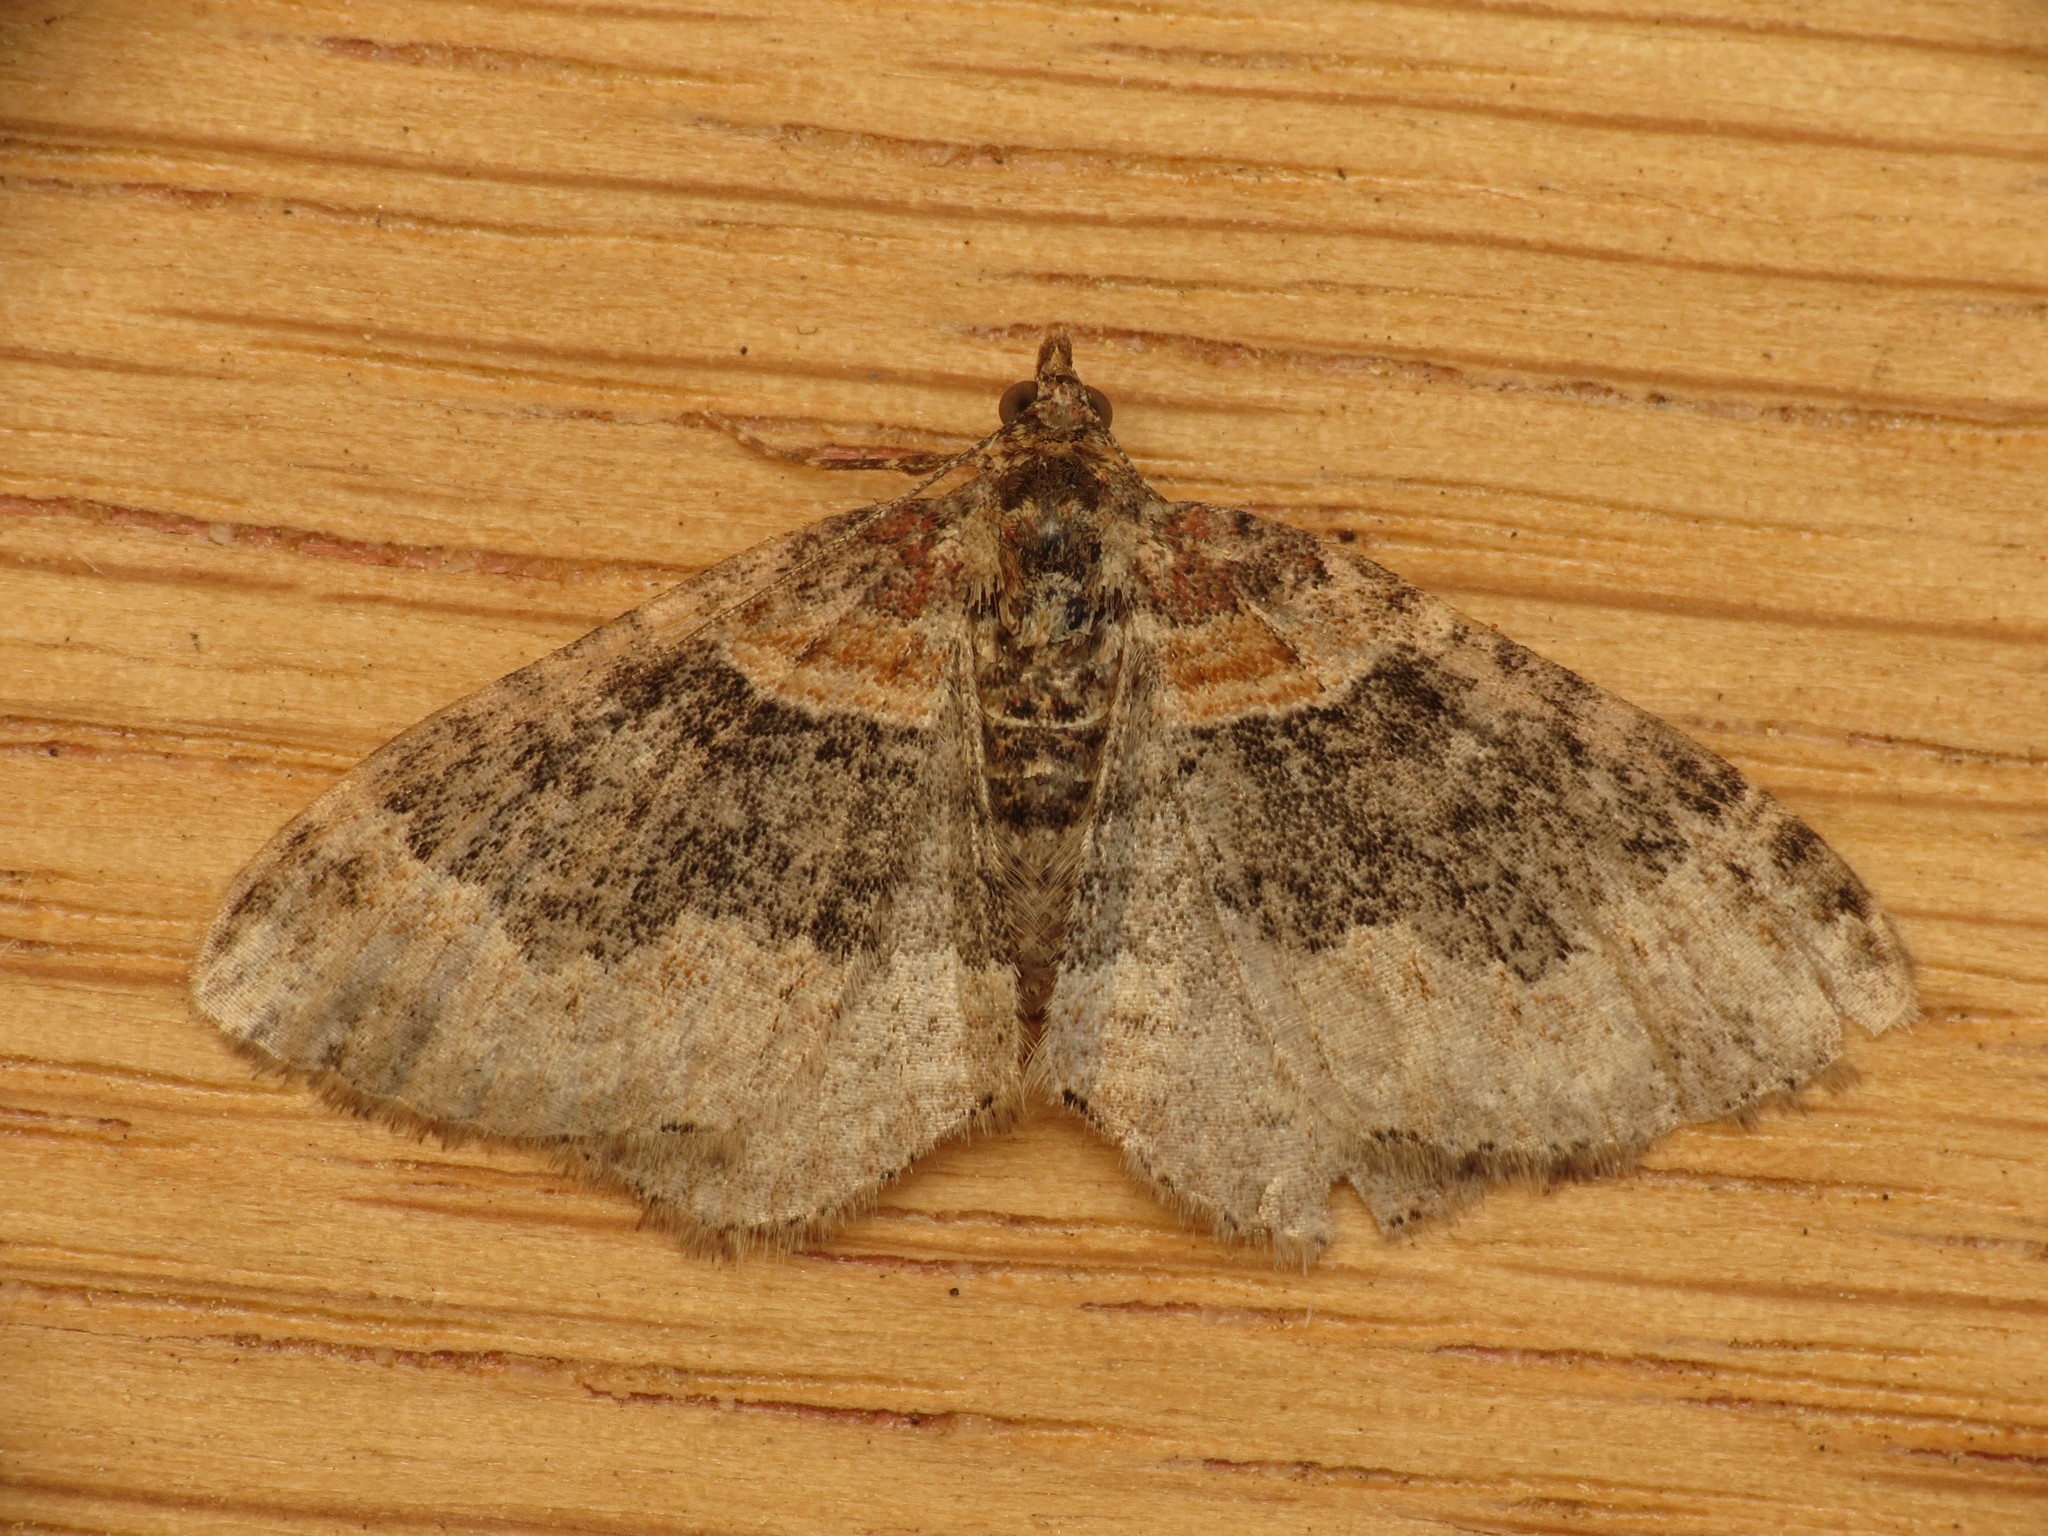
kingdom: Animalia
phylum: Arthropoda
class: Insecta
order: Lepidoptera
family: Geometridae
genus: Xanthorhoe
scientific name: Xanthorhoe ferrugata
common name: Dark-barred twin-spot carpet
